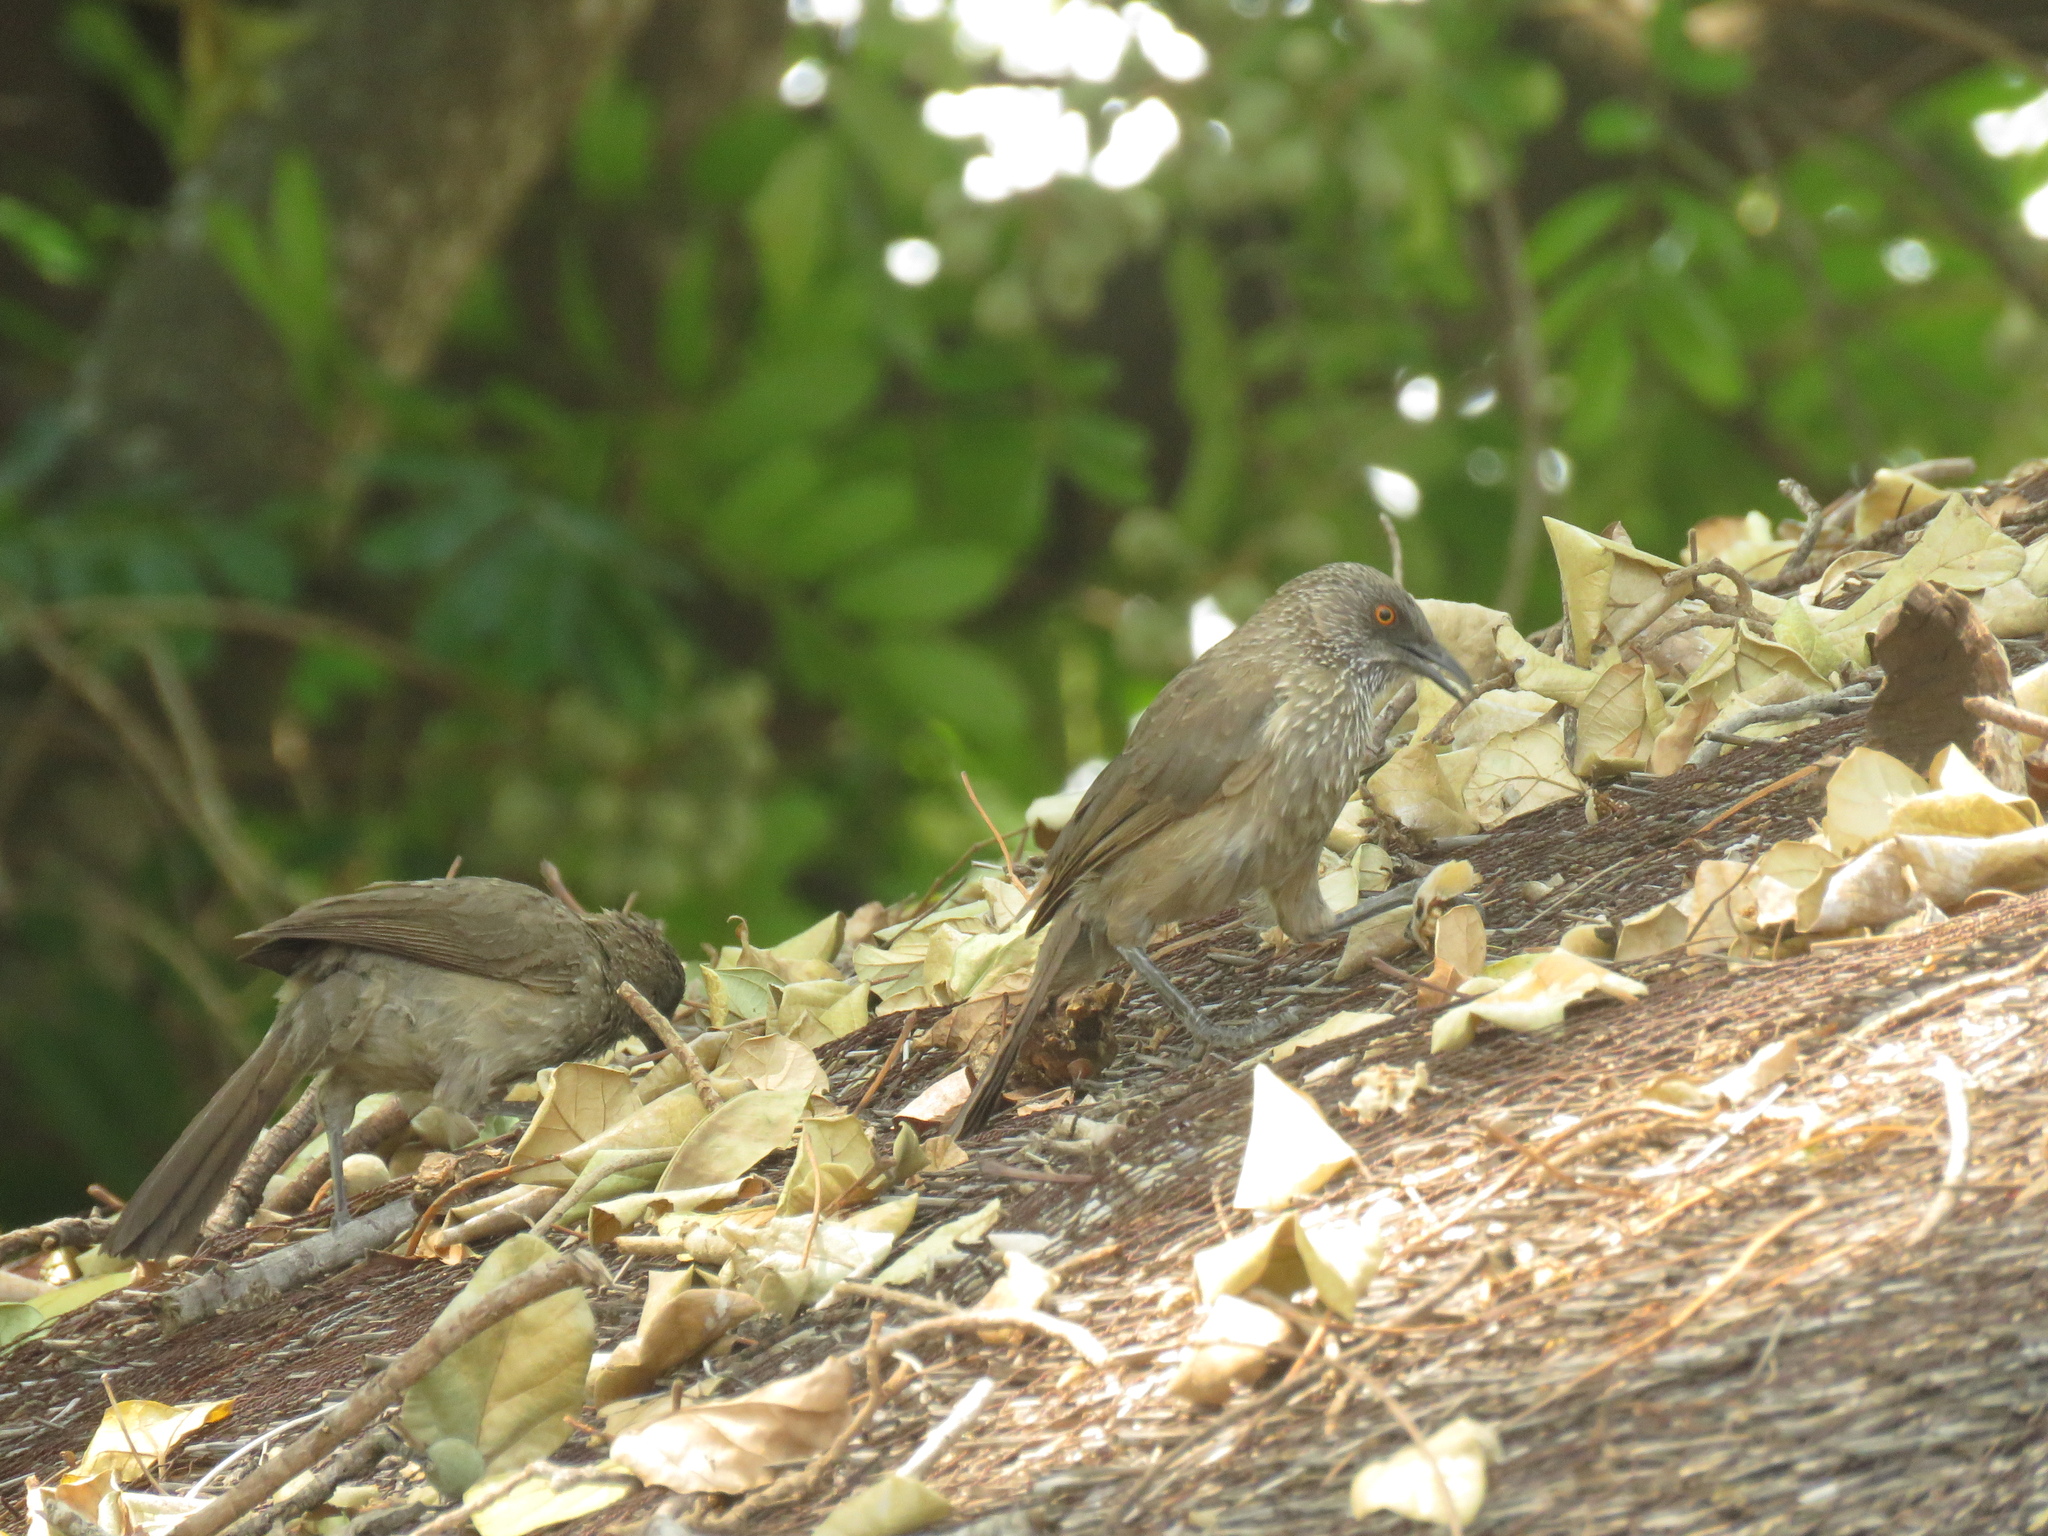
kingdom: Animalia
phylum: Chordata
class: Aves
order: Passeriformes
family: Leiothrichidae
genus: Turdoides
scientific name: Turdoides jardineii
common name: Arrow-marked babbler
